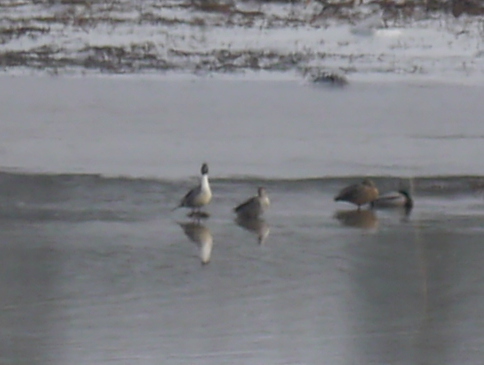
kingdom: Animalia
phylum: Chordata
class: Aves
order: Anseriformes
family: Anatidae
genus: Anas
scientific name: Anas acuta
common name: Northern pintail
